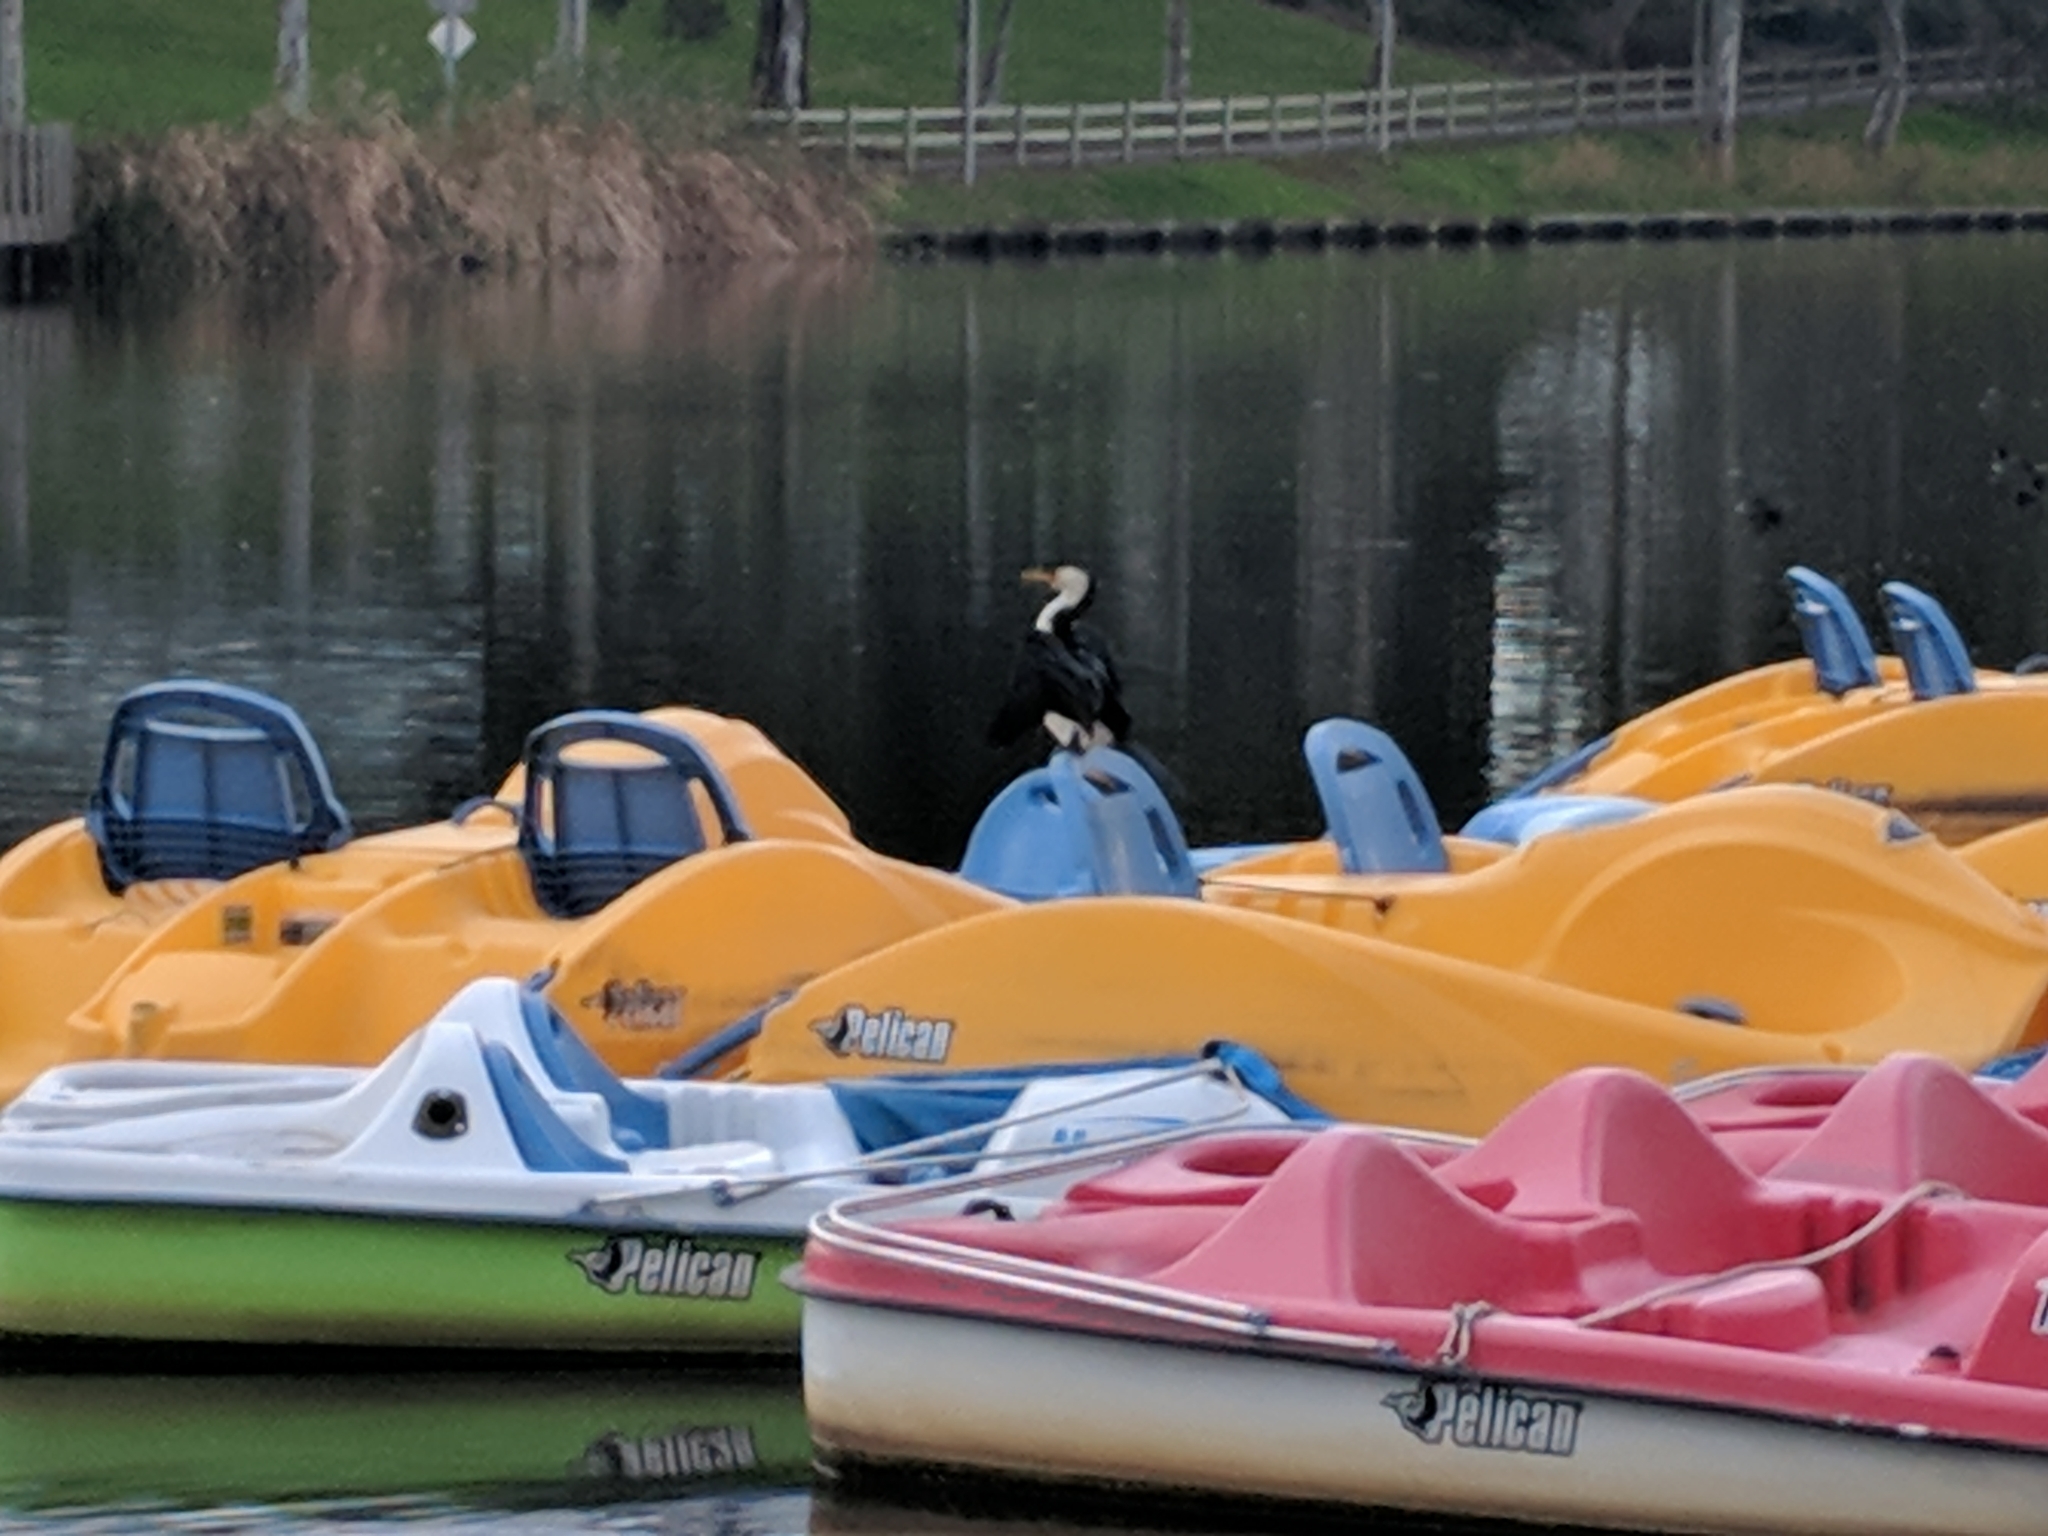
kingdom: Animalia
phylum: Chordata
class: Aves
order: Suliformes
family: Phalacrocoracidae
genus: Microcarbo
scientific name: Microcarbo melanoleucos
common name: Little pied cormorant
